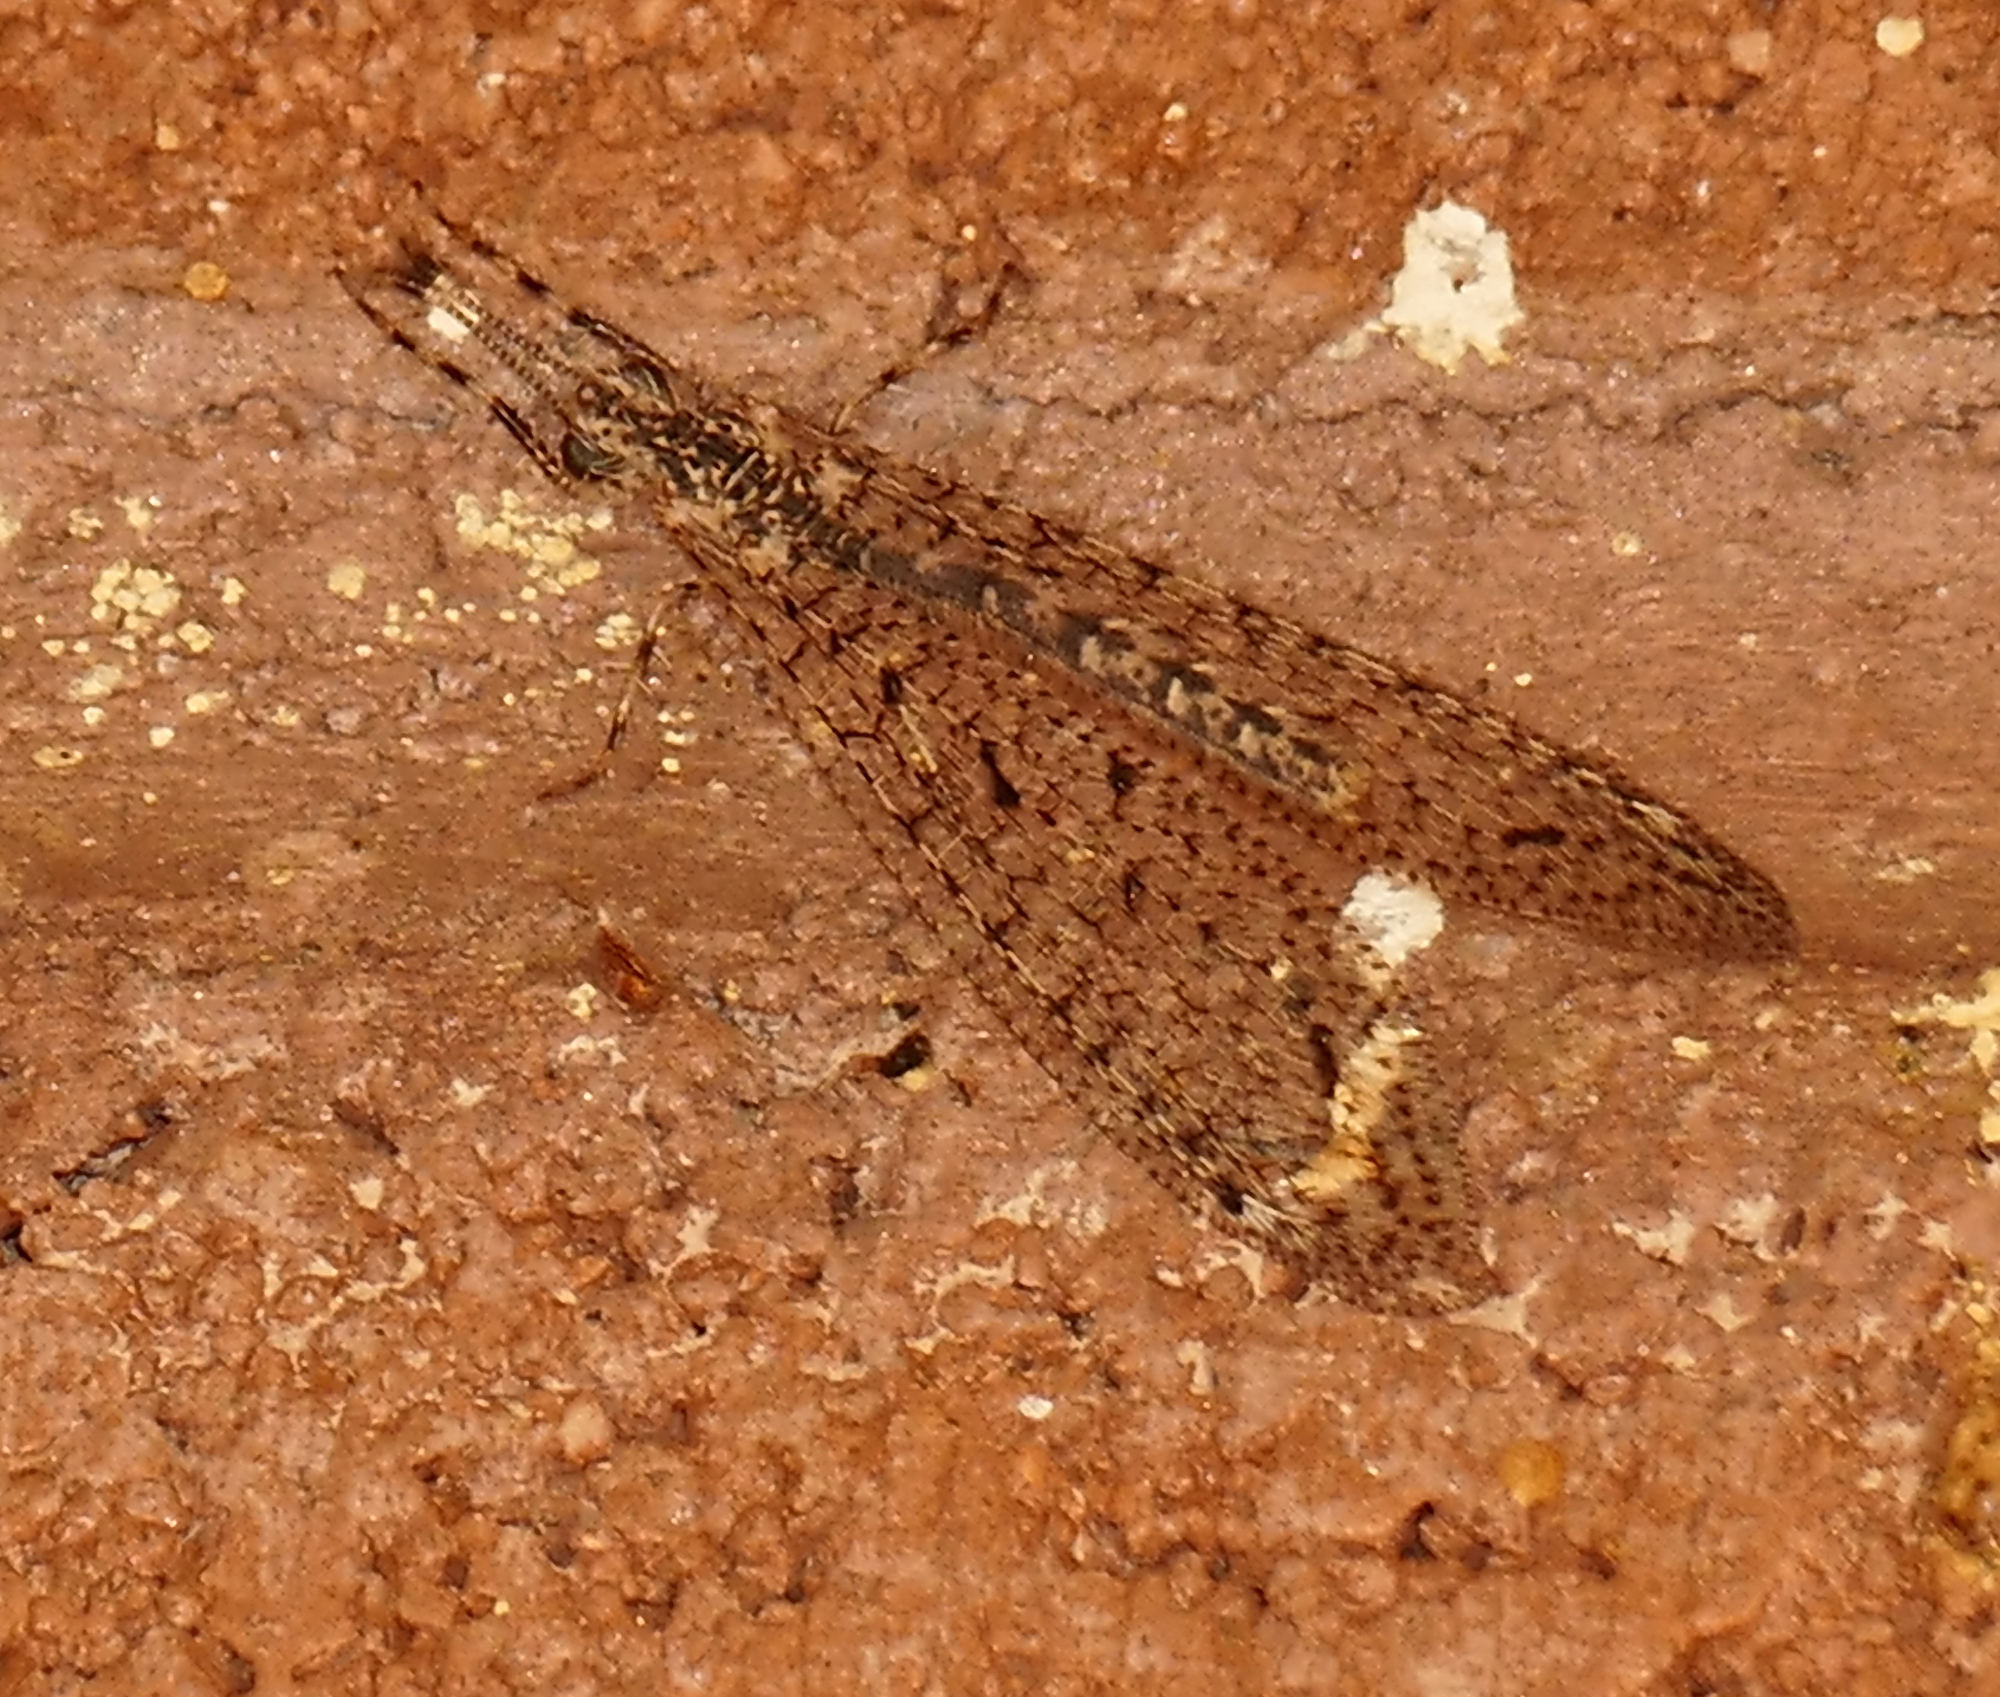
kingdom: Animalia
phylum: Arthropoda
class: Insecta
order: Neuroptera
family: Myrmeleontidae
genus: Chaetoleon
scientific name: Chaetoleon pusillus
